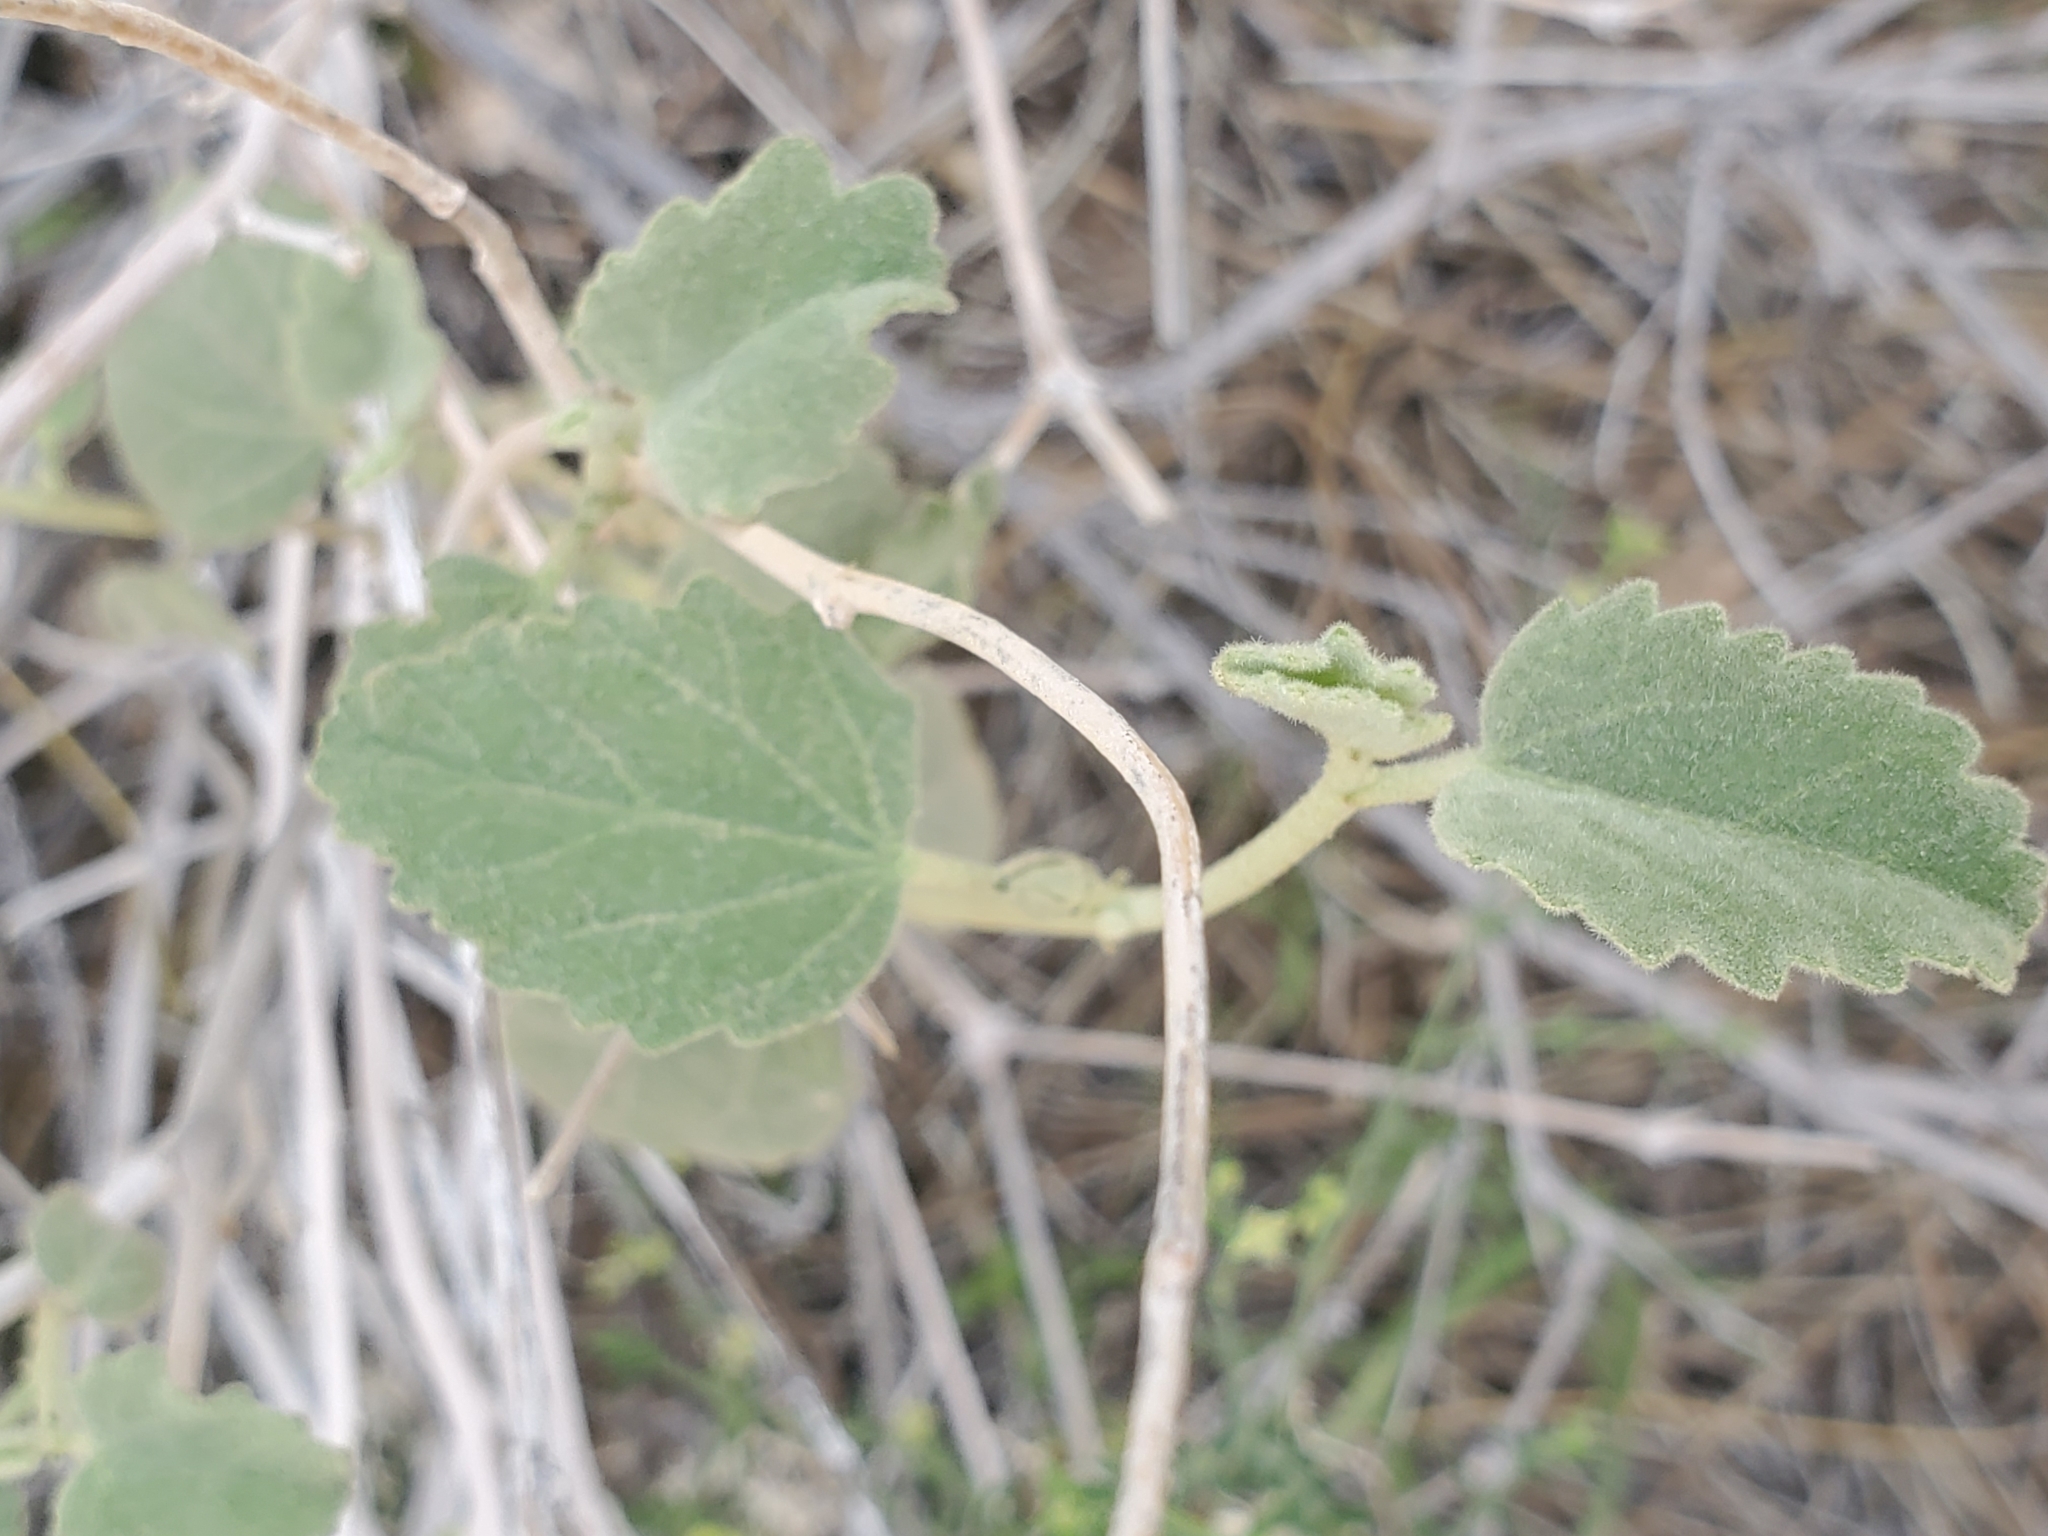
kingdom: Plantae
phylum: Tracheophyta
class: Magnoliopsida
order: Malvales
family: Malvaceae
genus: Hibiscus
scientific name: Hibiscus denudatus
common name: Paleface
